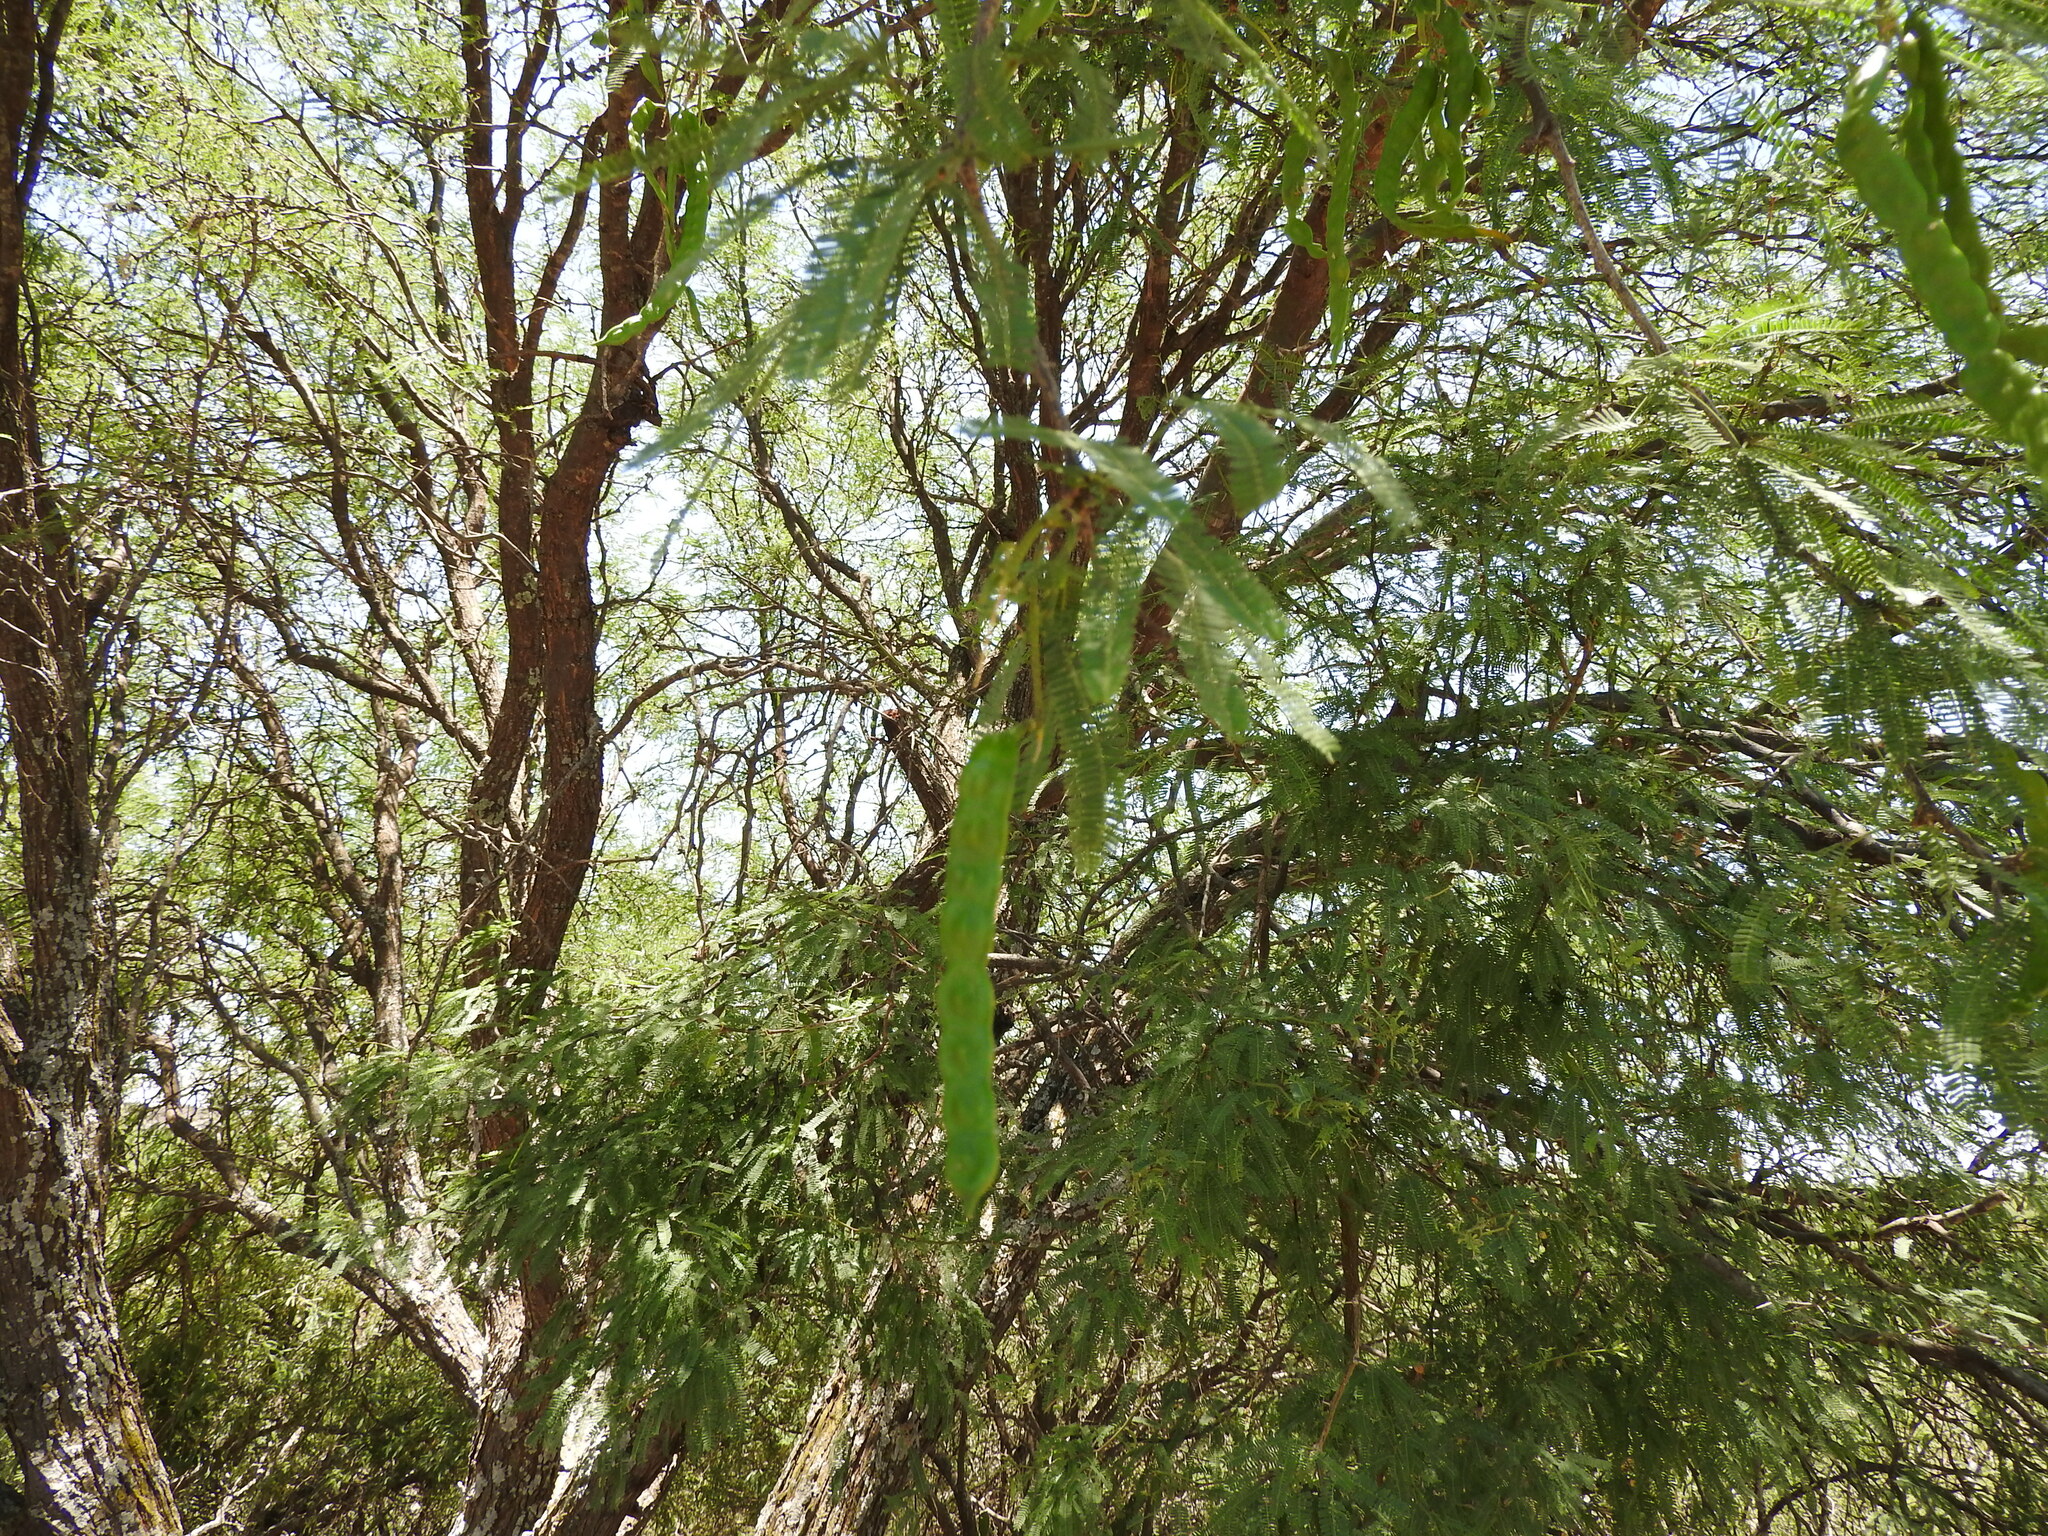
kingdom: Plantae
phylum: Tracheophyta
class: Magnoliopsida
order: Fabales
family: Fabaceae
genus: Prosopis
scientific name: Prosopis laevigata
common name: Smooth mesquite
